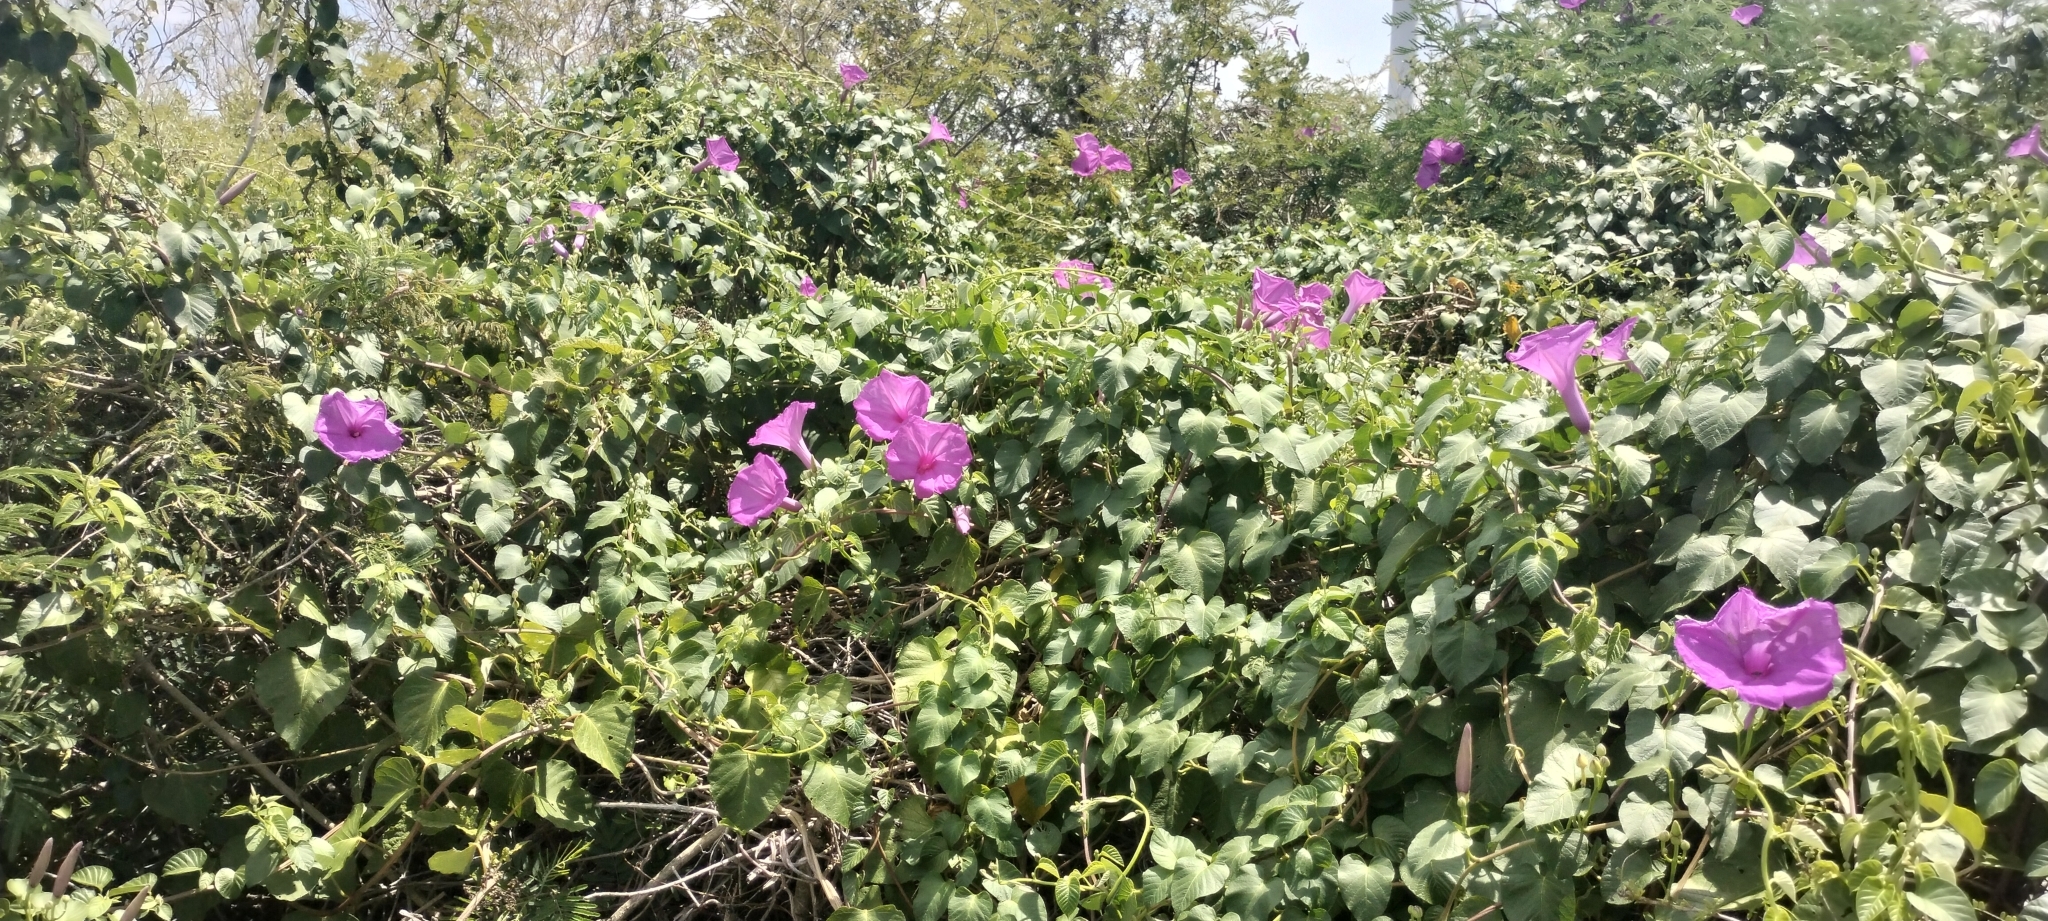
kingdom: Plantae
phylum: Tracheophyta
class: Magnoliopsida
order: Solanales
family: Convolvulaceae
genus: Ipomoea
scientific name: Ipomoea jalapa
